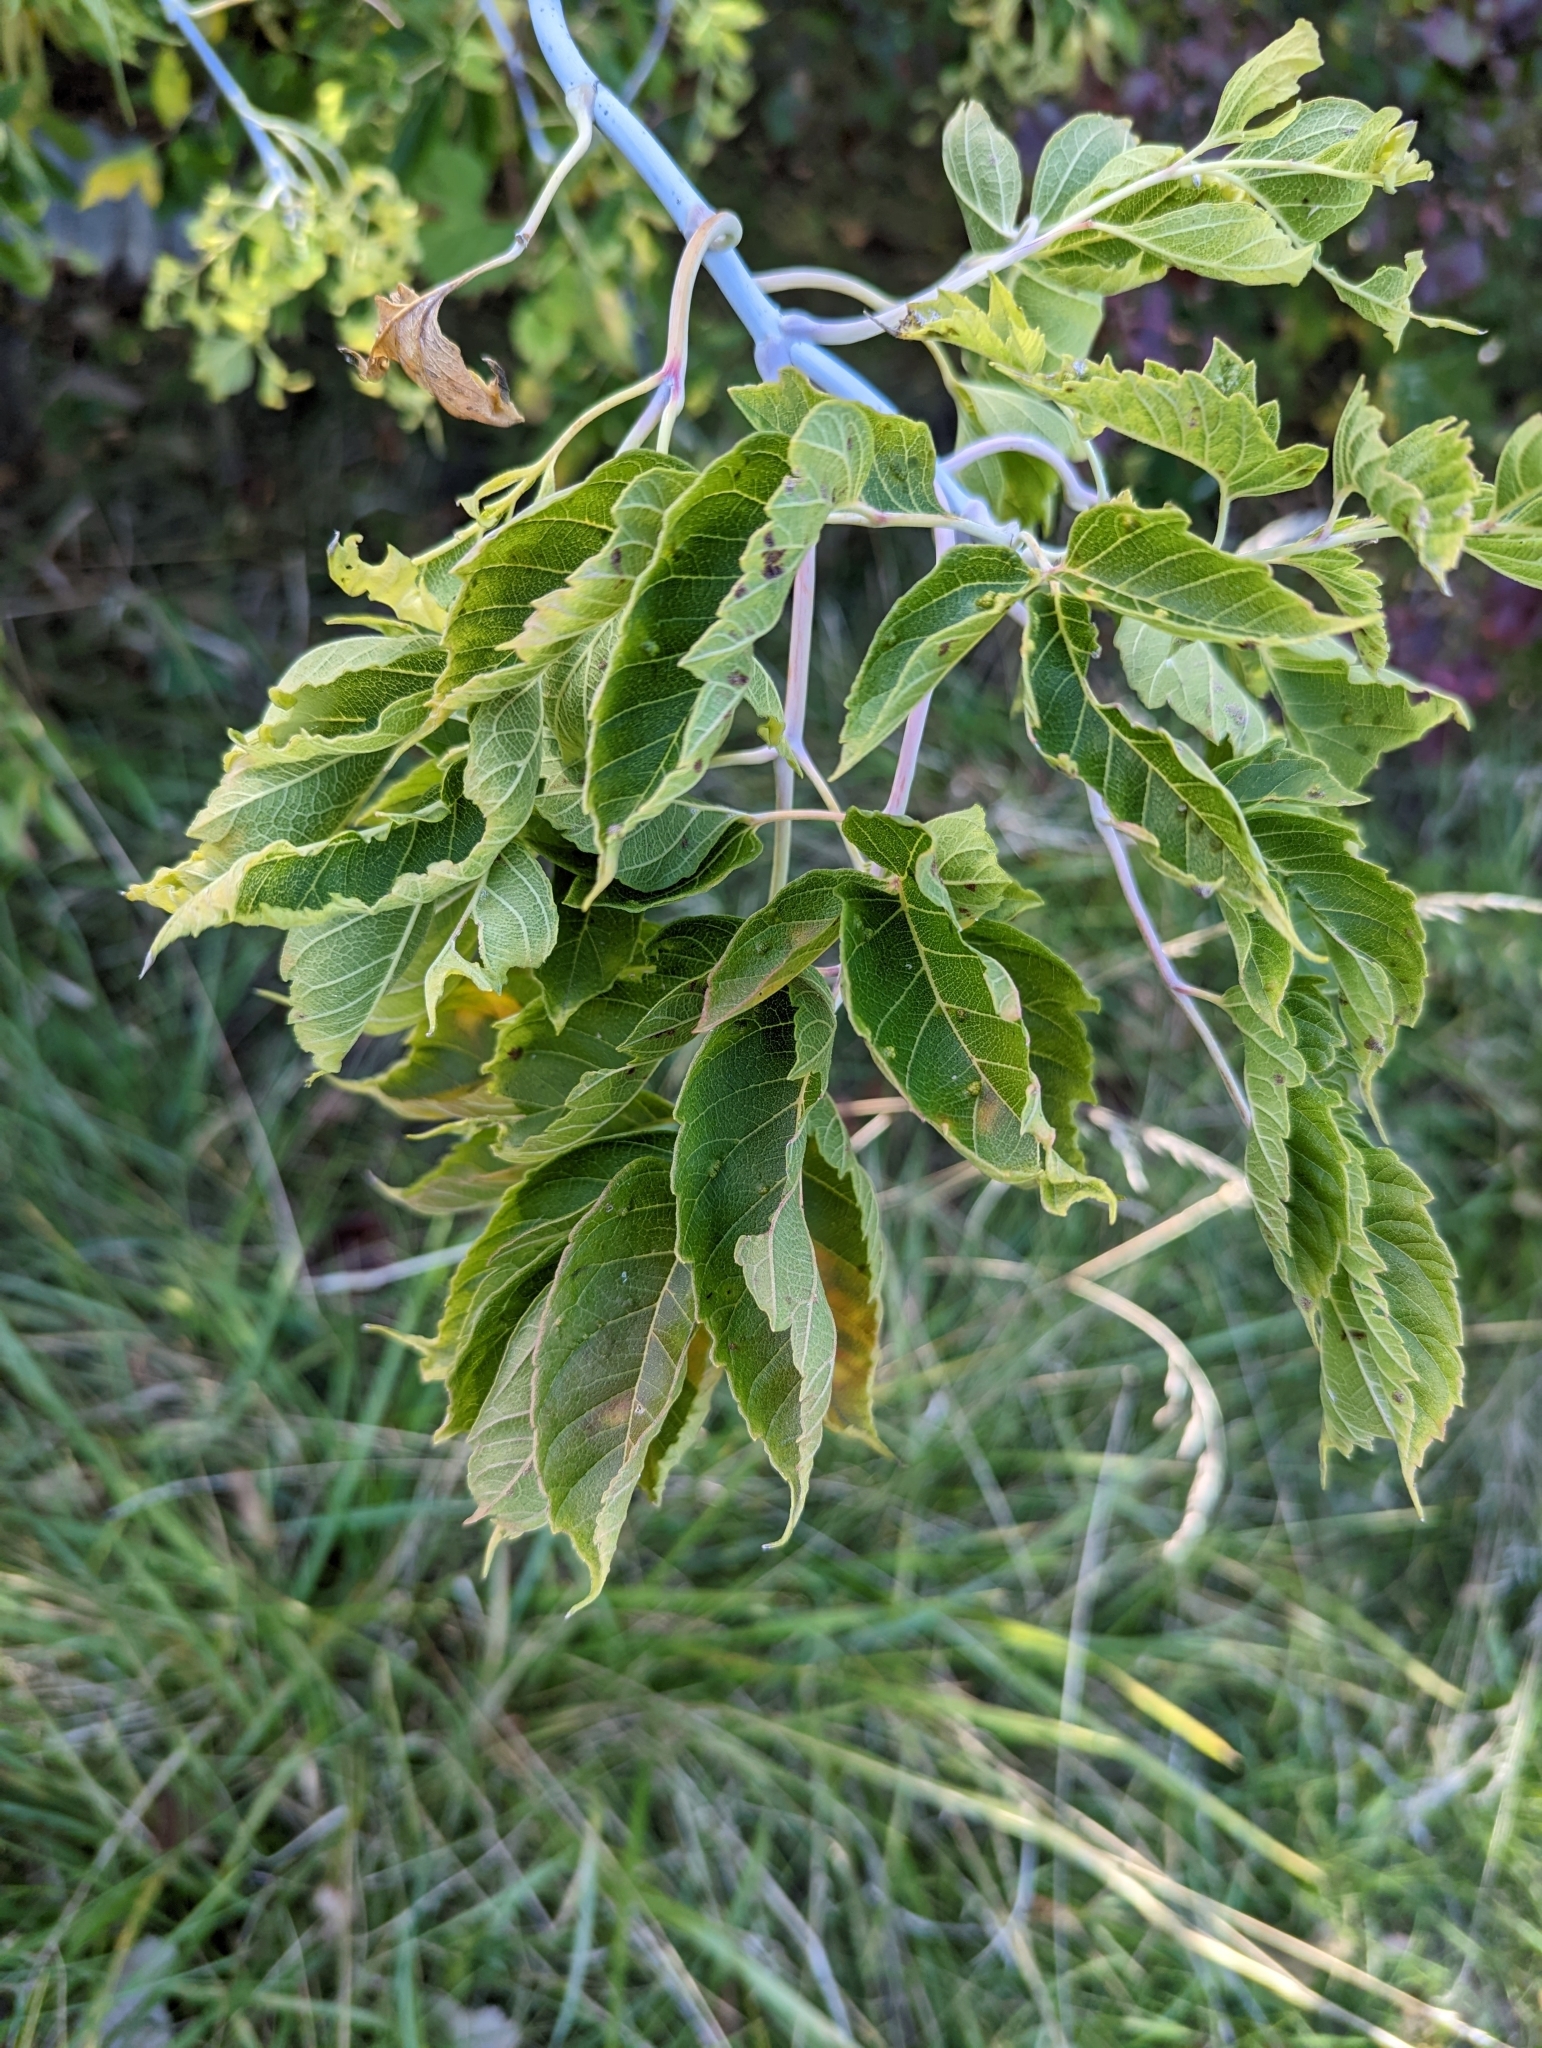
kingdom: Plantae
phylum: Tracheophyta
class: Magnoliopsida
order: Sapindales
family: Sapindaceae
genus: Acer
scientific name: Acer negundo
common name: Ashleaf maple
